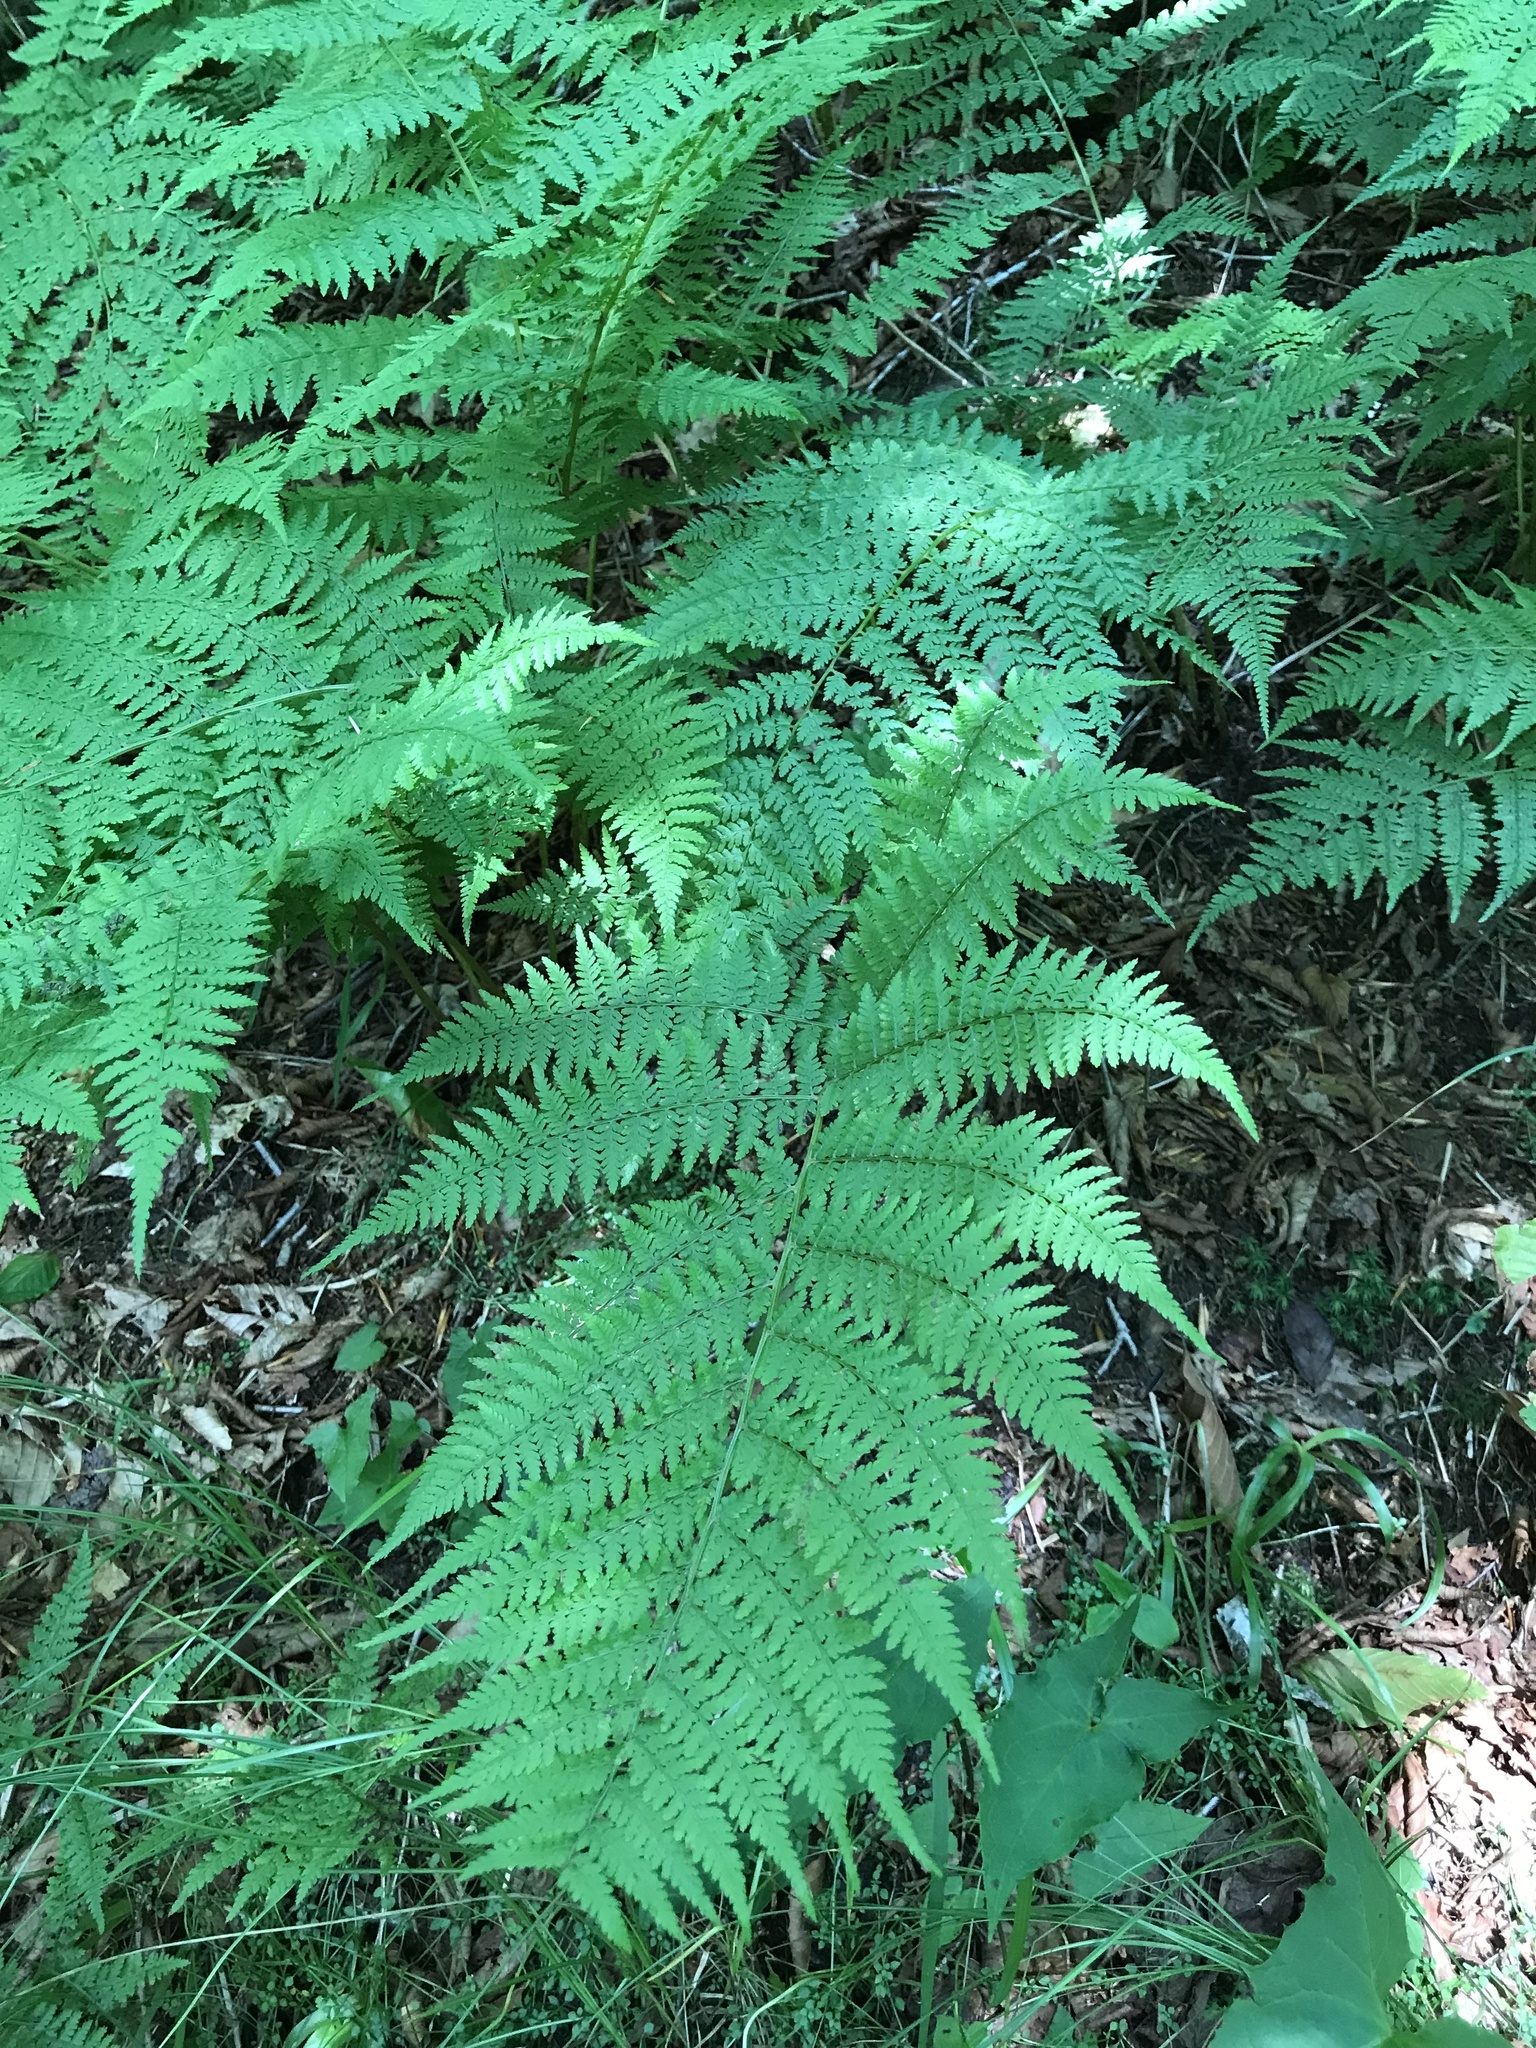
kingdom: Plantae
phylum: Tracheophyta
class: Polypodiopsida
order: Polypodiales
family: Athyriaceae
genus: Athyrium
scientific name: Athyrium asplenioides
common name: Southern lady fern
